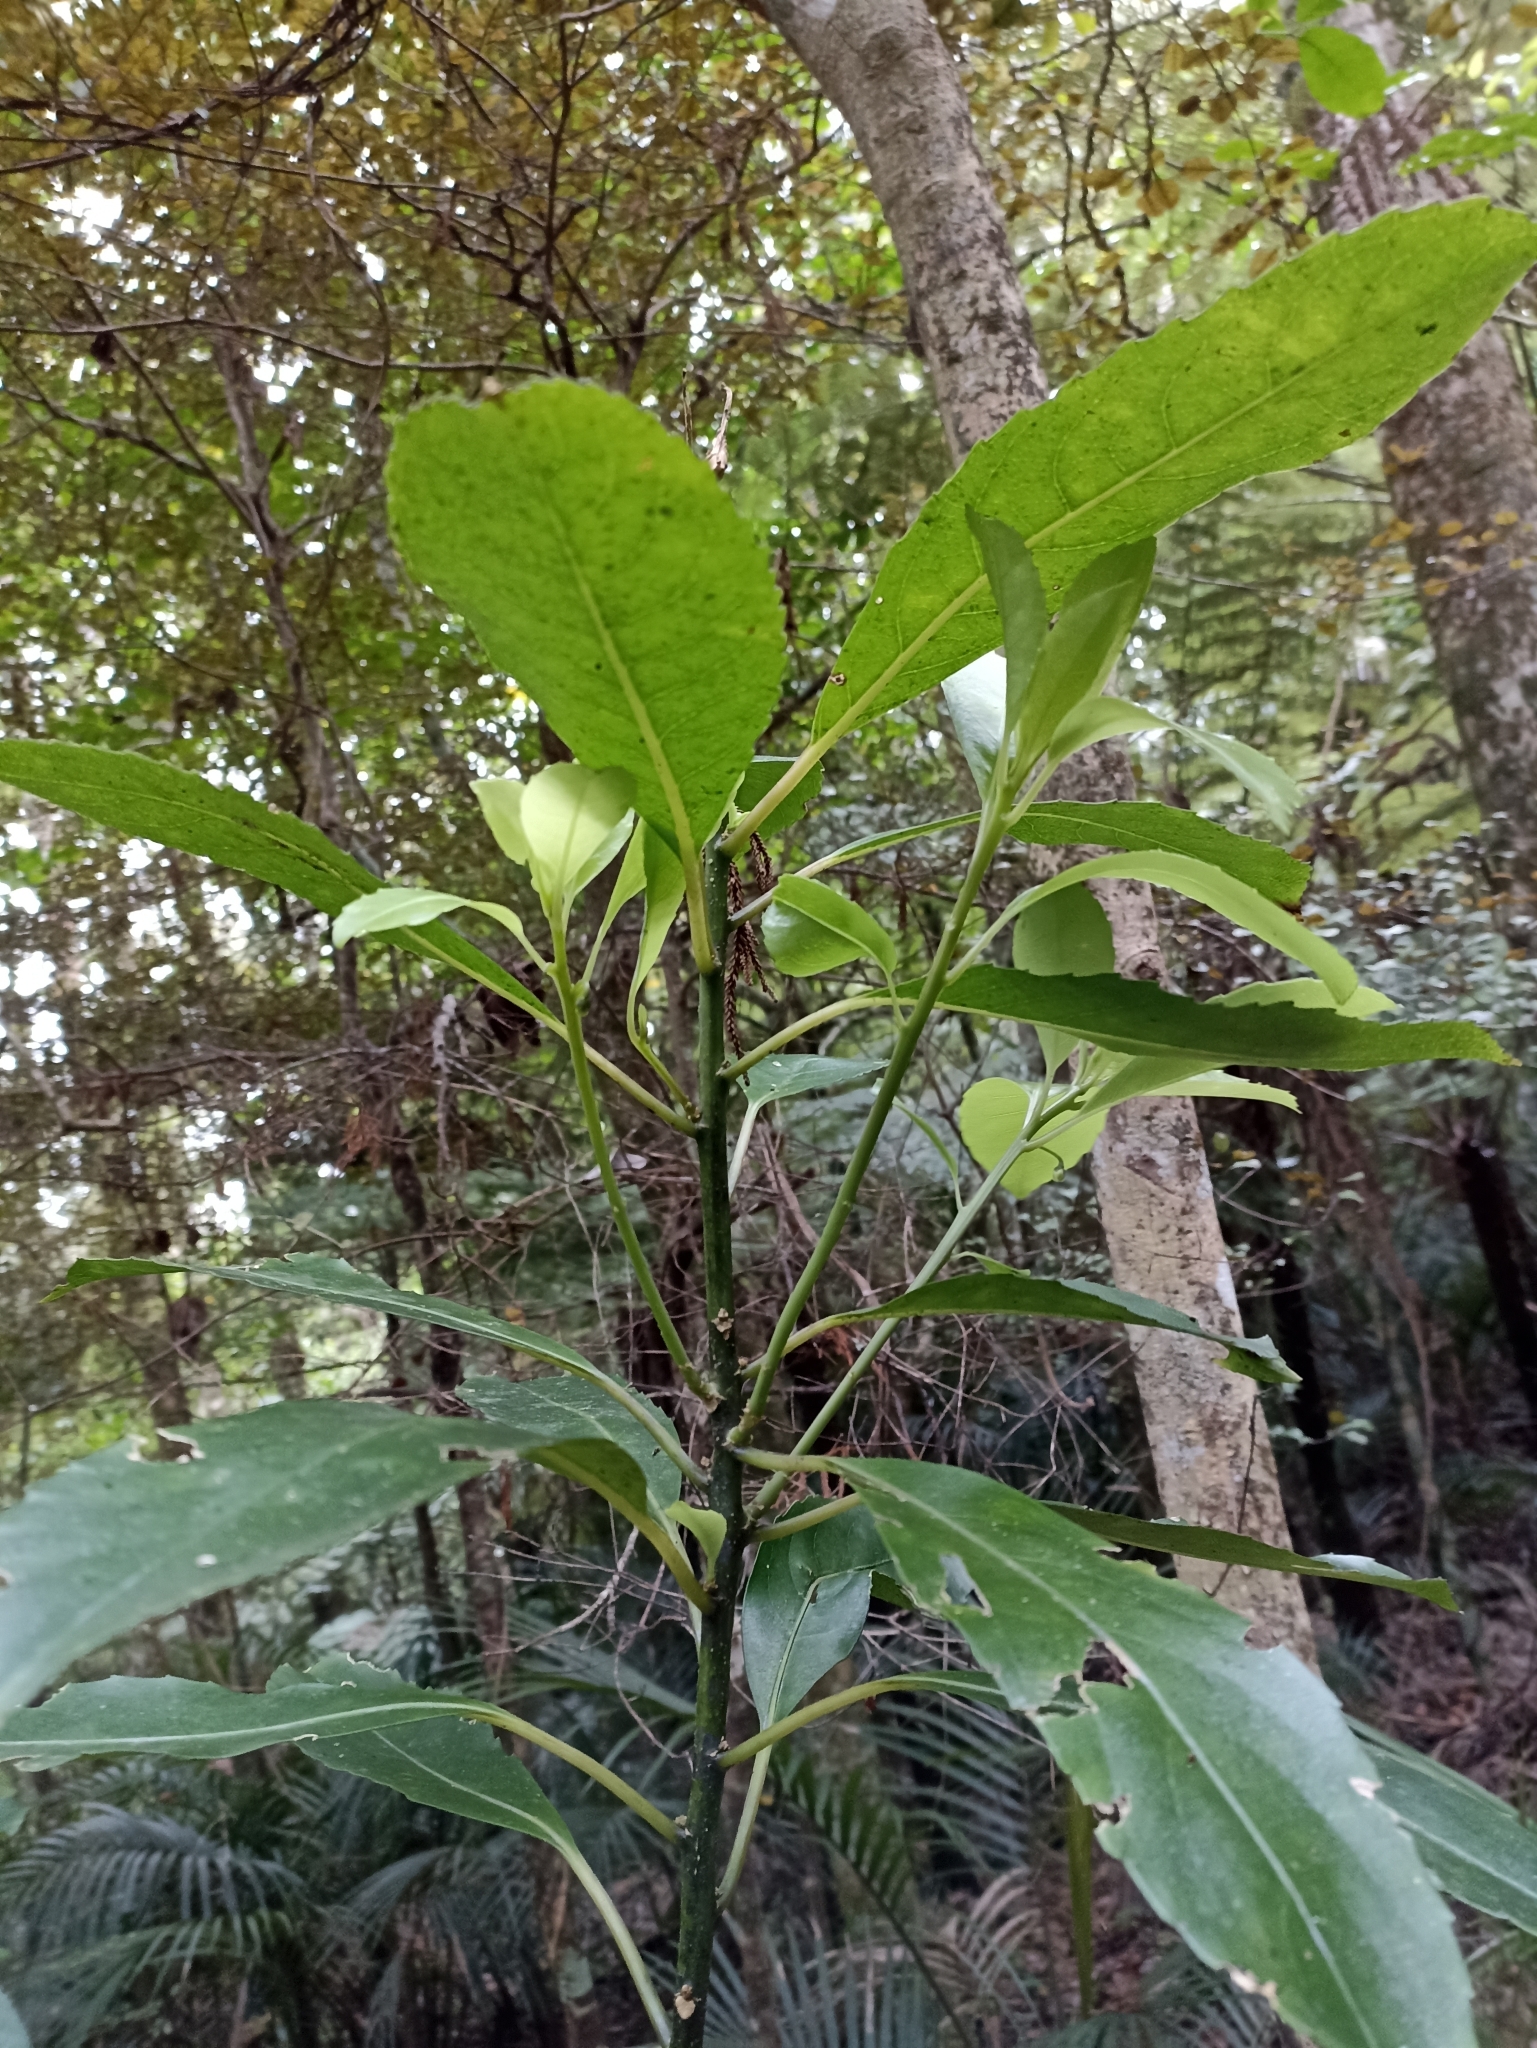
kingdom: Plantae
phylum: Tracheophyta
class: Magnoliopsida
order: Malpighiales
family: Violaceae
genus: Melicytus
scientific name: Melicytus macrophyllus
